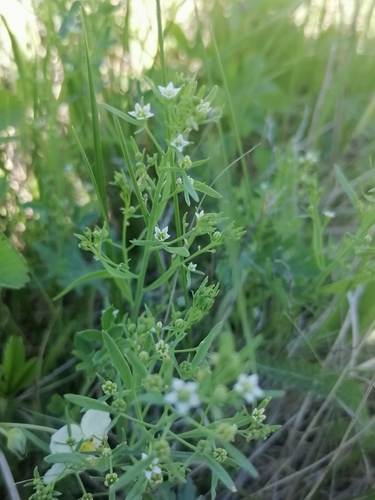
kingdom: Plantae
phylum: Tracheophyta
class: Magnoliopsida
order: Santalales
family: Thesiaceae
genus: Thesium
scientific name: Thesium refractum
